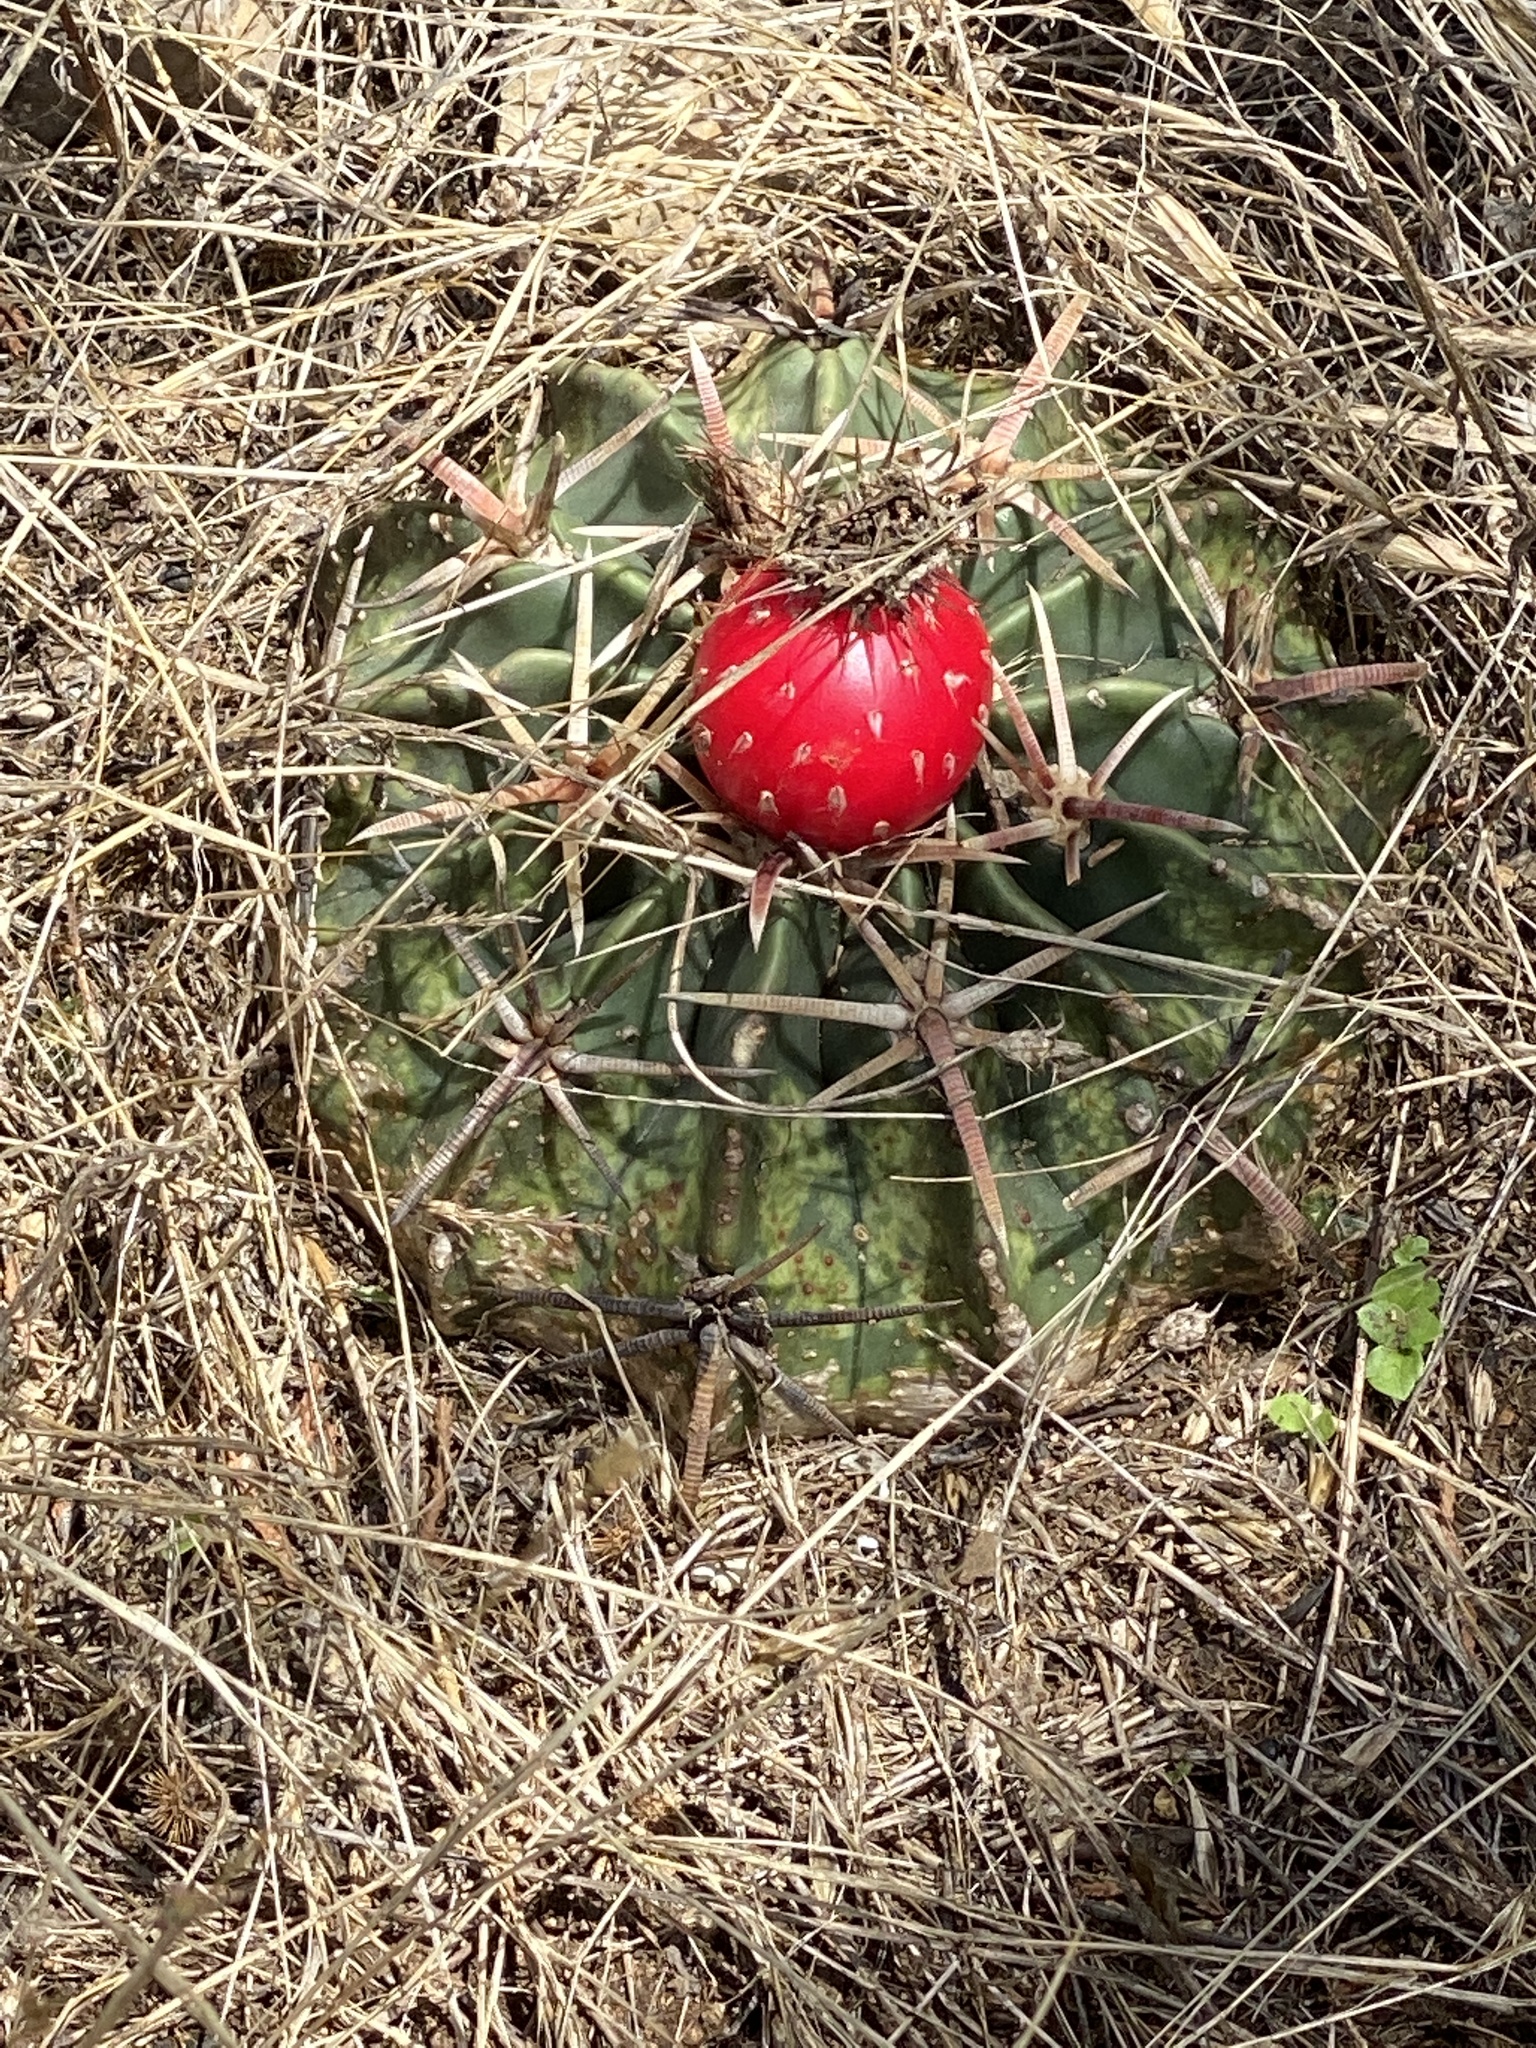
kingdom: Plantae
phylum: Tracheophyta
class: Magnoliopsida
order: Caryophyllales
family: Cactaceae
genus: Echinocactus
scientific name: Echinocactus texensis
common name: Devil's pincushion
